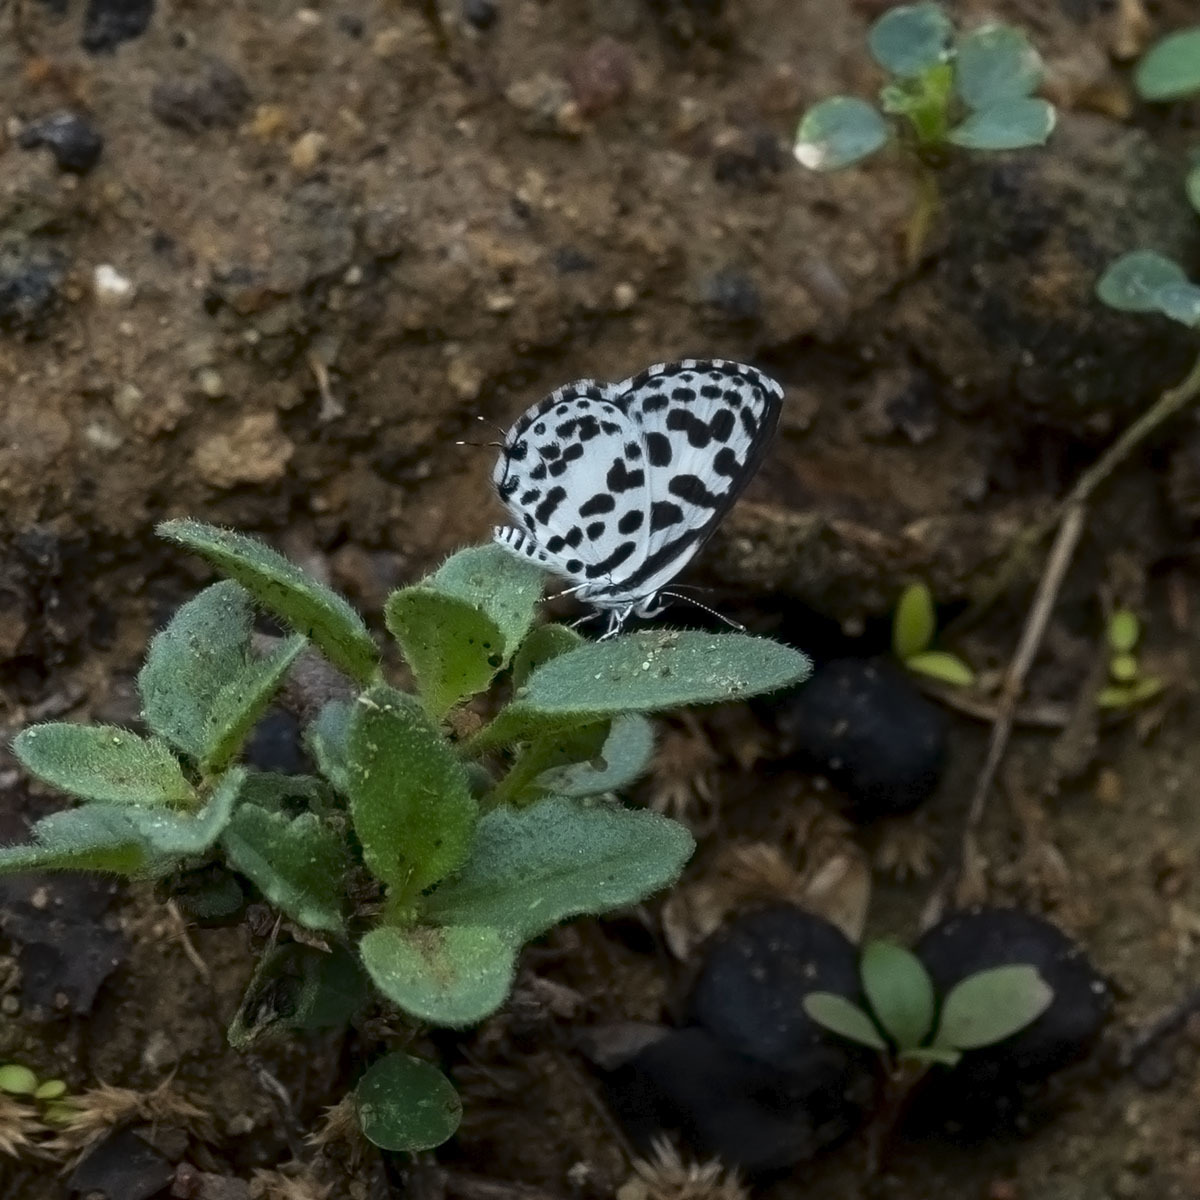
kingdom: Animalia
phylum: Arthropoda
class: Insecta
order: Lepidoptera
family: Lycaenidae
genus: Castalius
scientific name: Castalius rosimon
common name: Common pierrot
